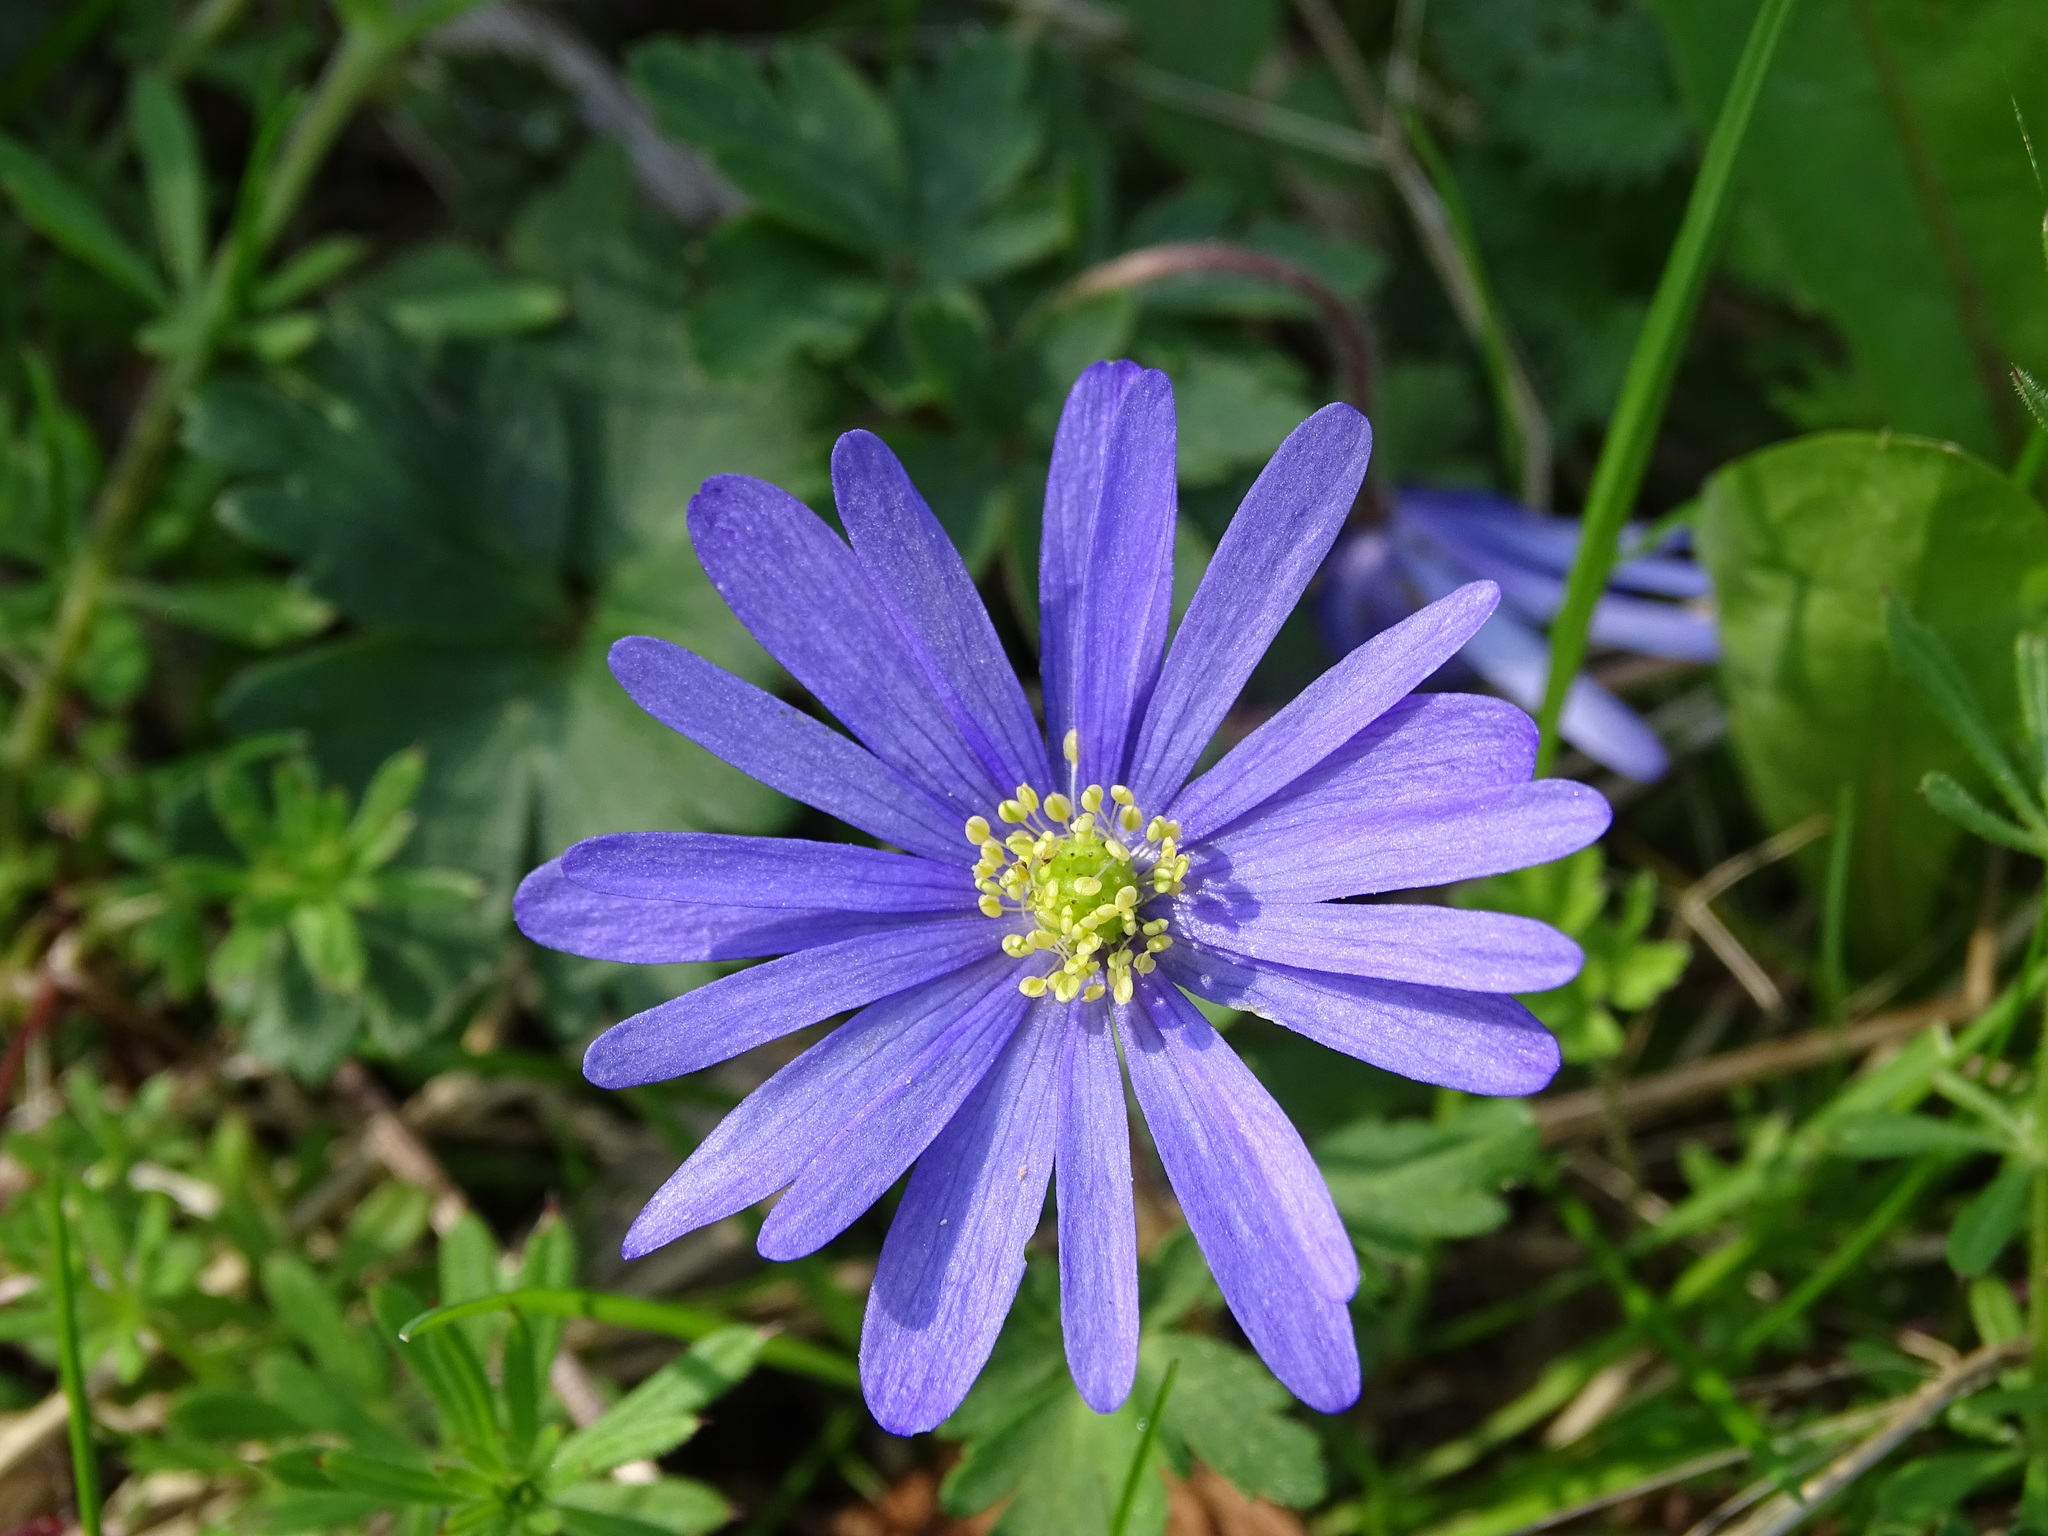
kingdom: Plantae
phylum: Tracheophyta
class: Magnoliopsida
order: Ranunculales
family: Ranunculaceae
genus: Anemone
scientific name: Anemone blanda
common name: Balkan anemone
